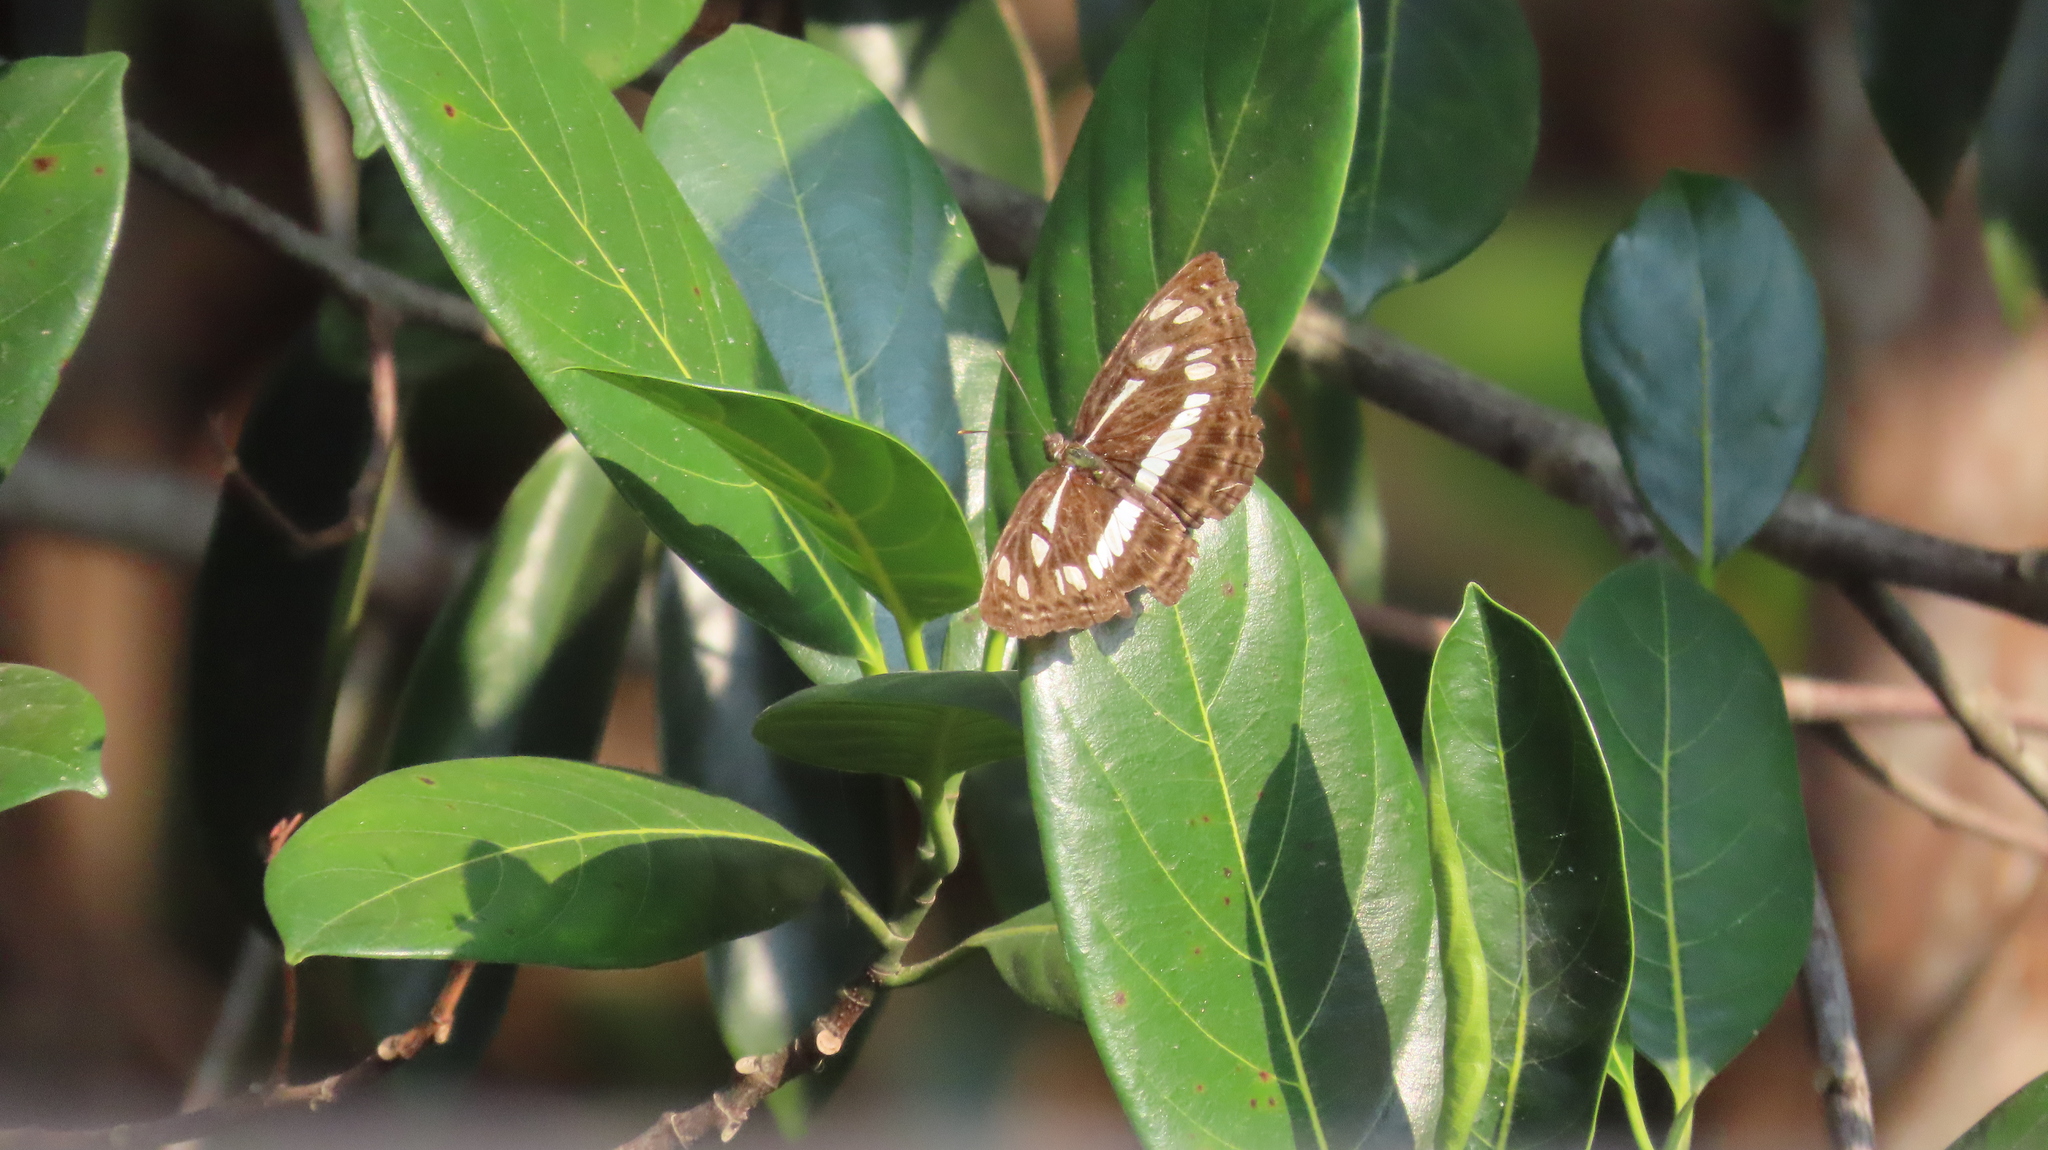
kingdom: Animalia
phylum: Arthropoda
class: Insecta
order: Lepidoptera
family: Nymphalidae
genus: Neptis
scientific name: Neptis jumbah
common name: Chestnut-streaked sailer
